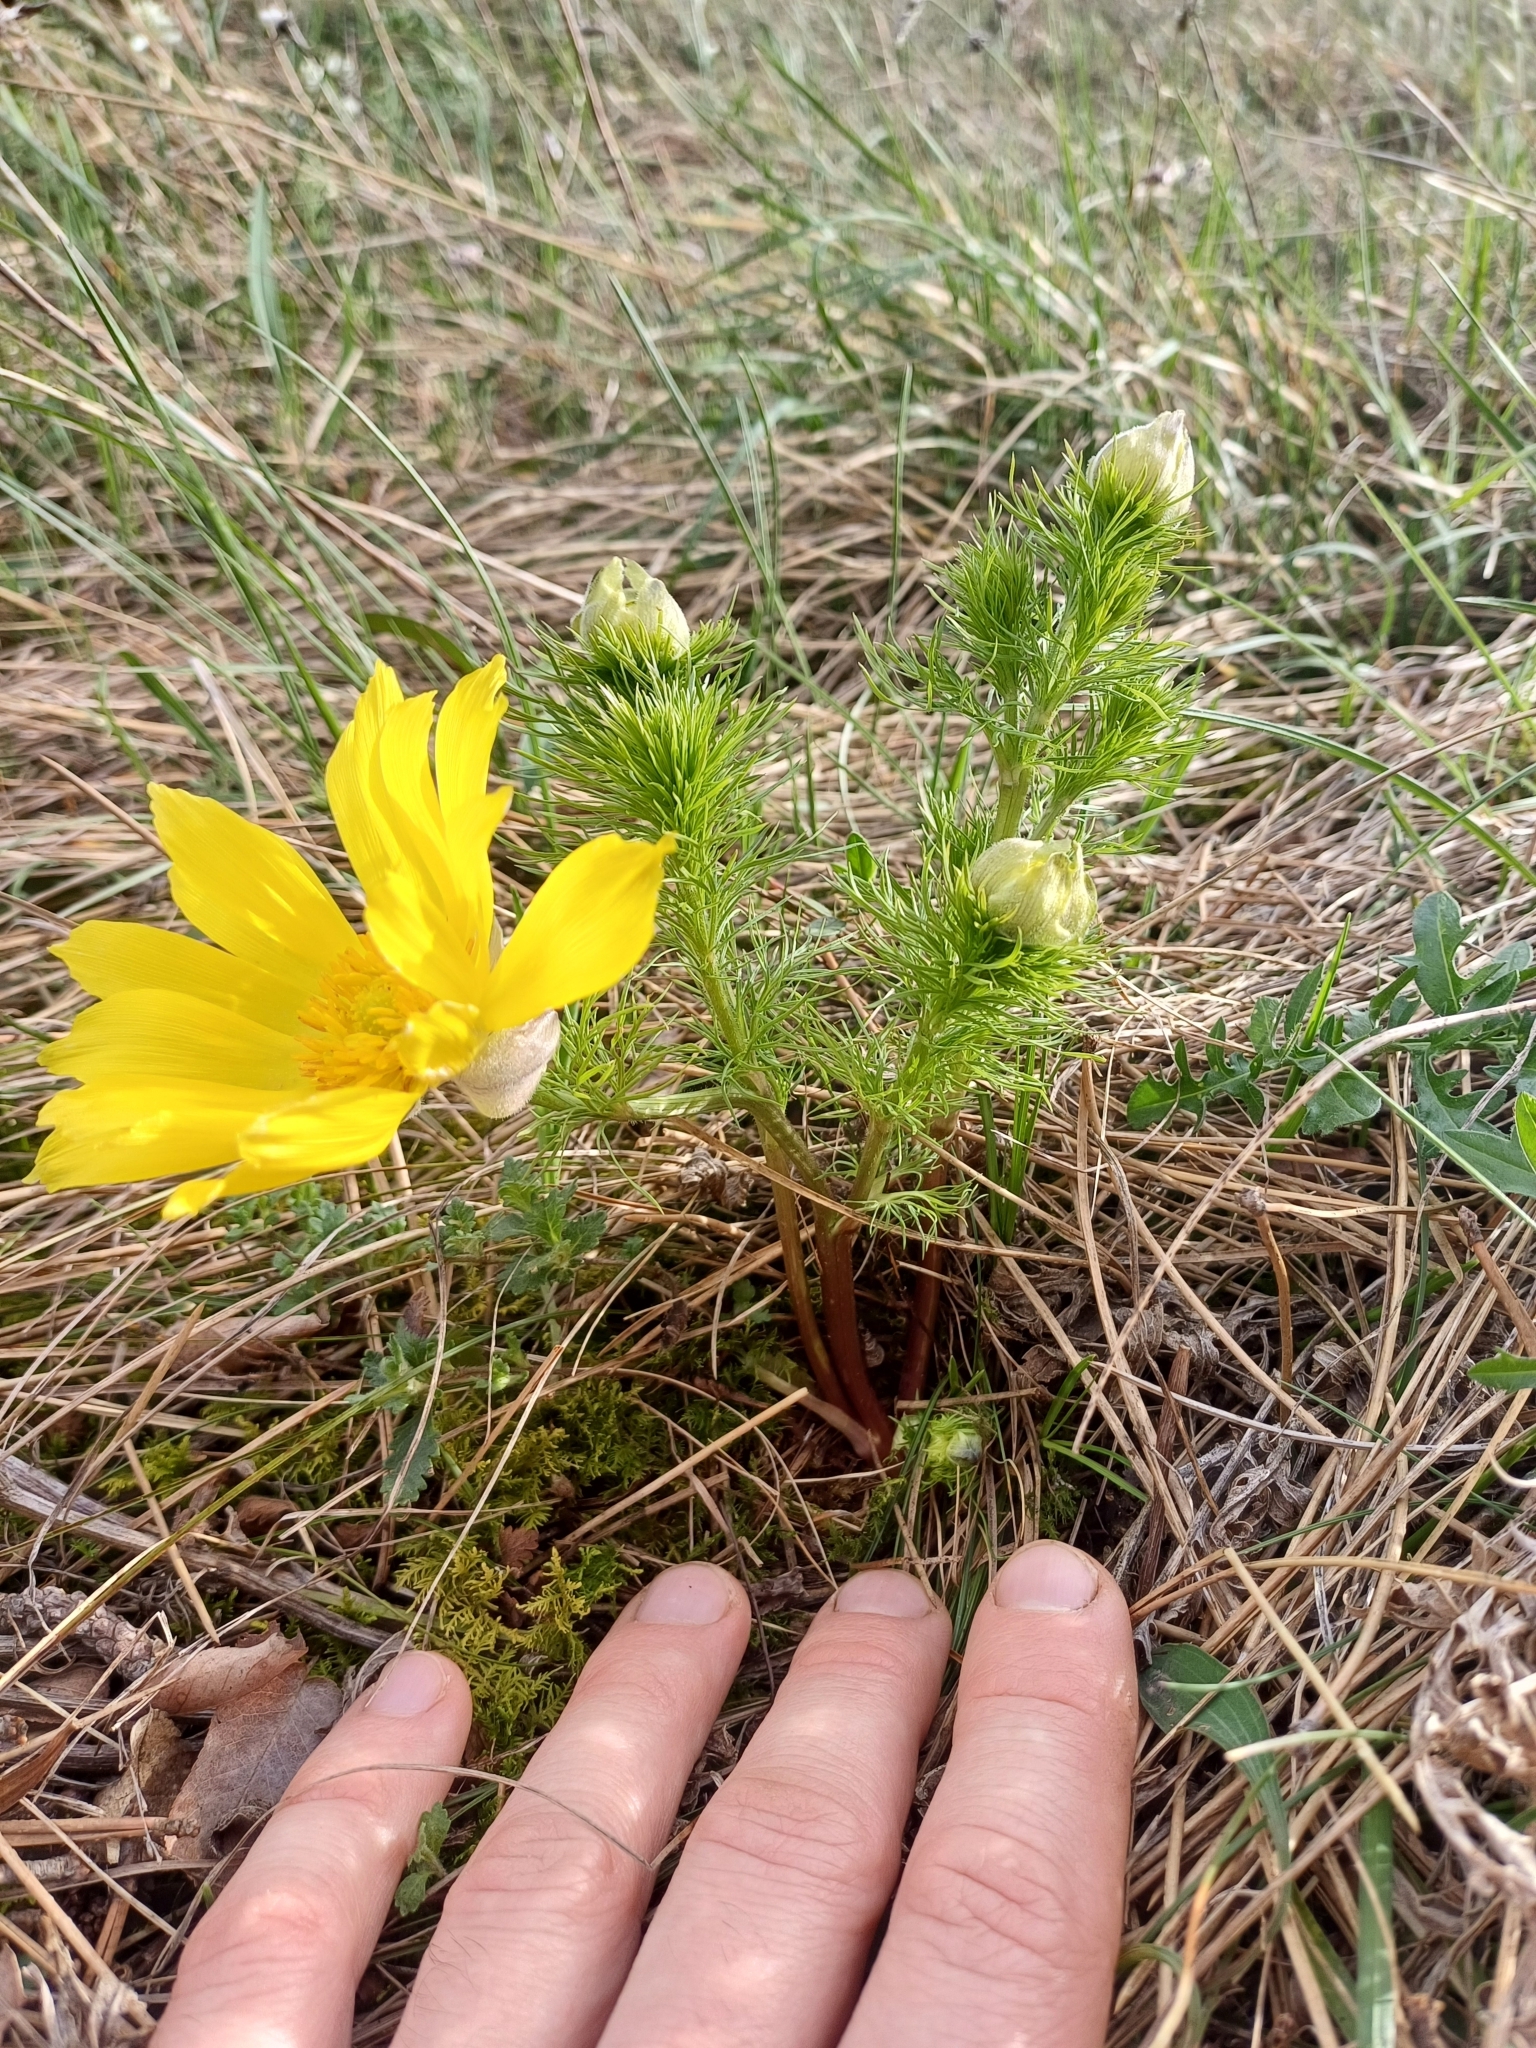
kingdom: Plantae
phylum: Tracheophyta
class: Magnoliopsida
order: Ranunculales
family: Ranunculaceae
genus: Adonis
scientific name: Adonis vernalis
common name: Yellow pheasants-eye
